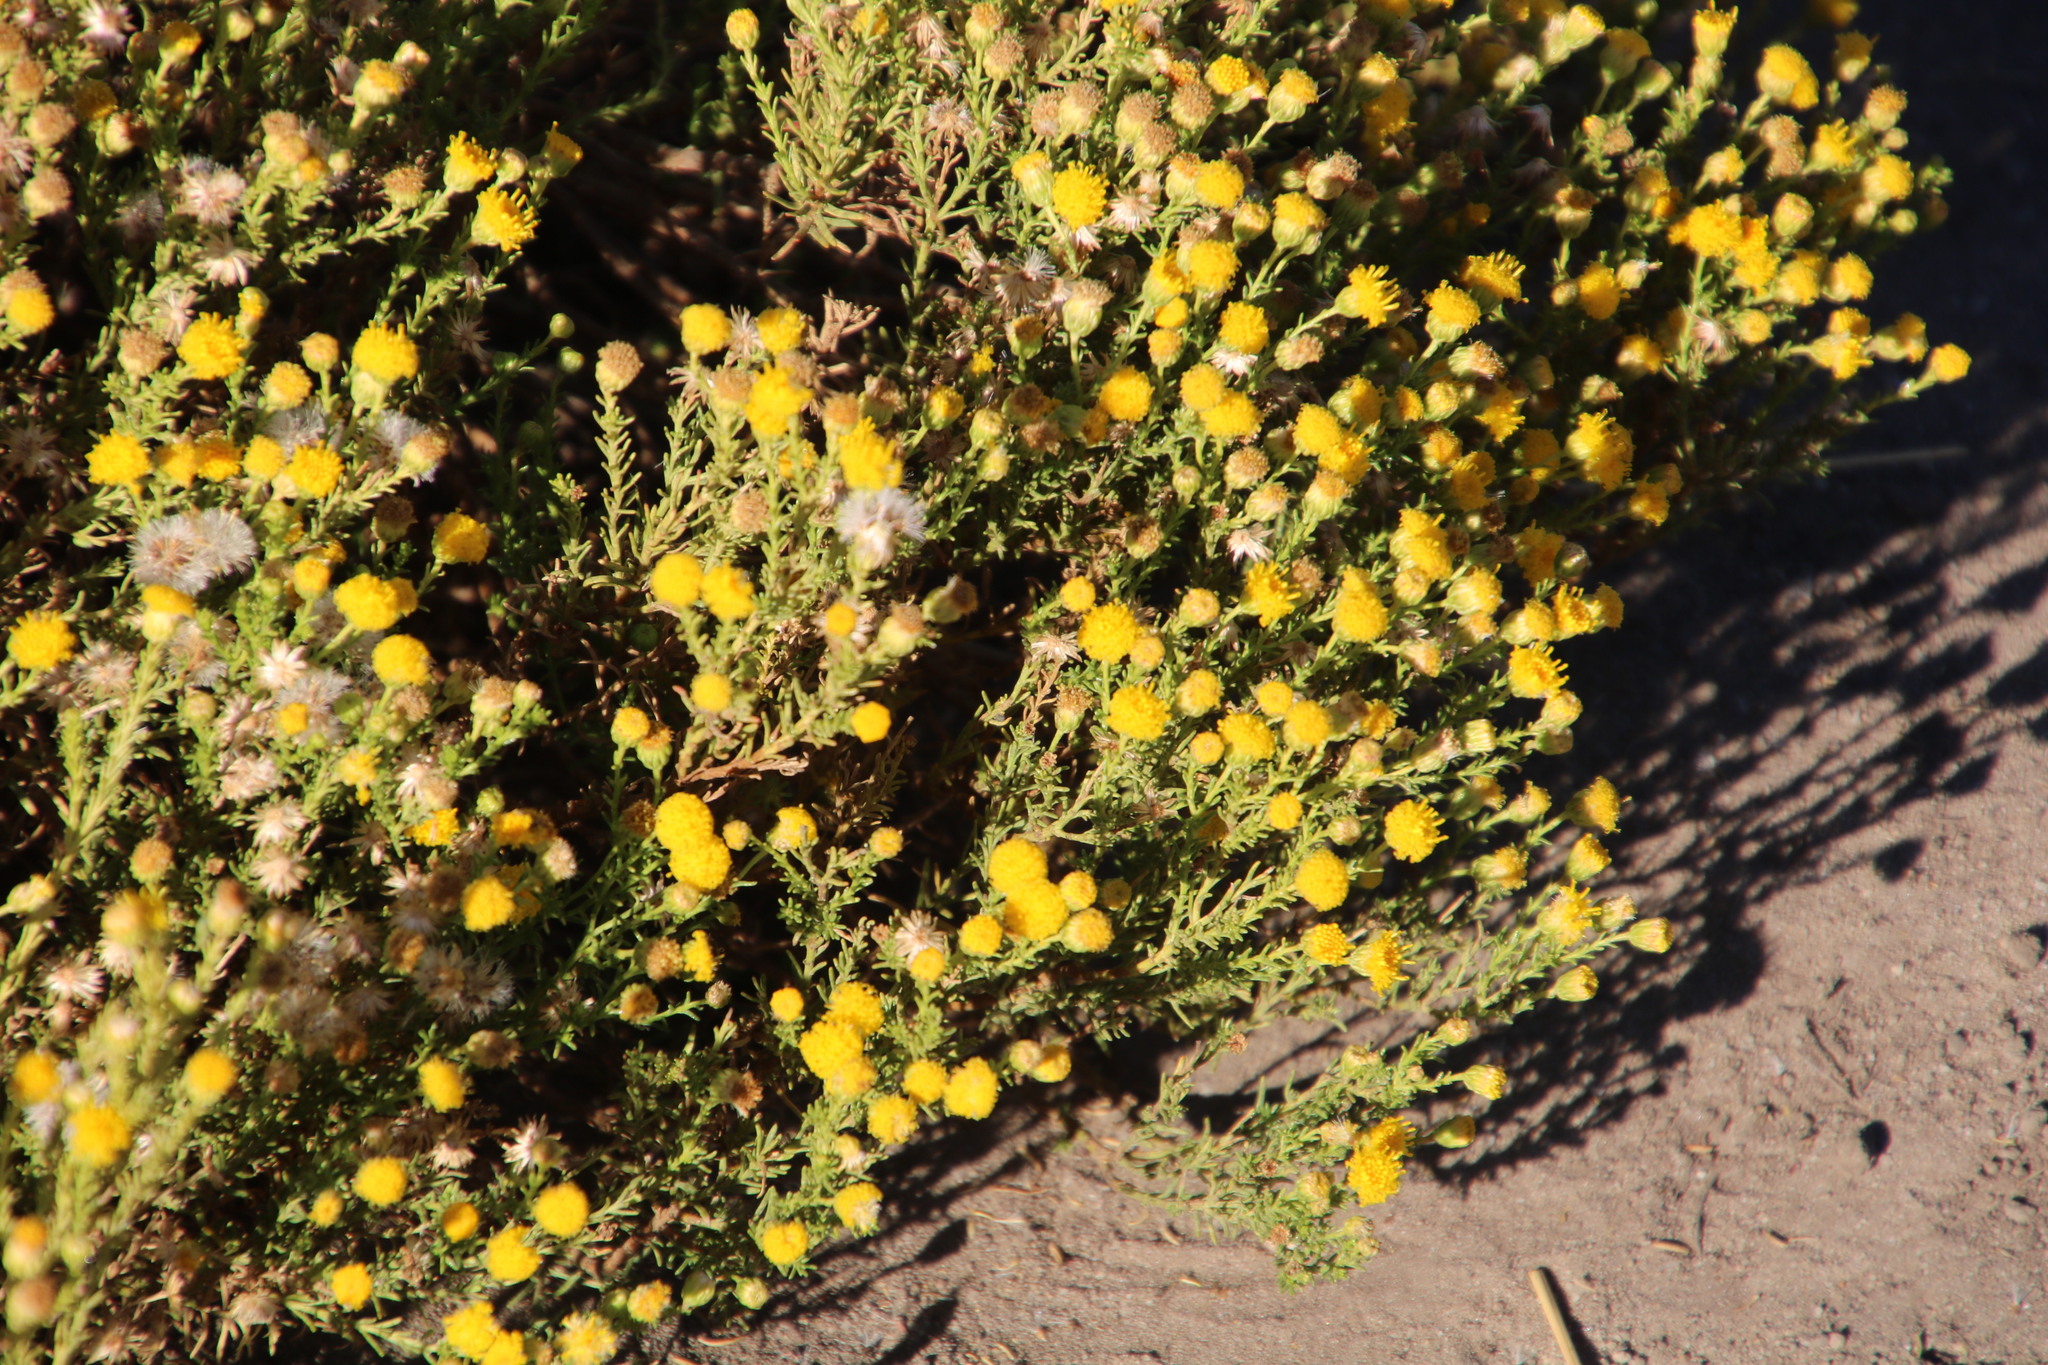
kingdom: Plantae
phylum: Tracheophyta
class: Magnoliopsida
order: Asterales
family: Asteraceae
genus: Chrysocoma
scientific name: Chrysocoma ciliata
